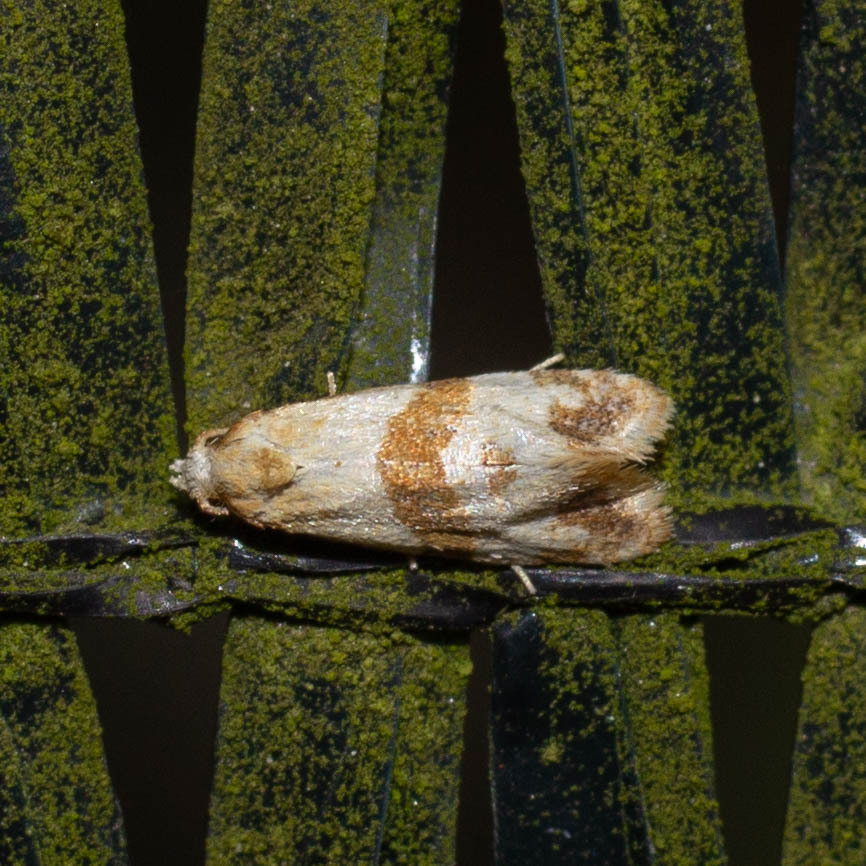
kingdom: Animalia
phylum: Arthropoda
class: Insecta
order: Lepidoptera
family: Tortricidae
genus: Phalonidia
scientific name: Phalonidia contractana
